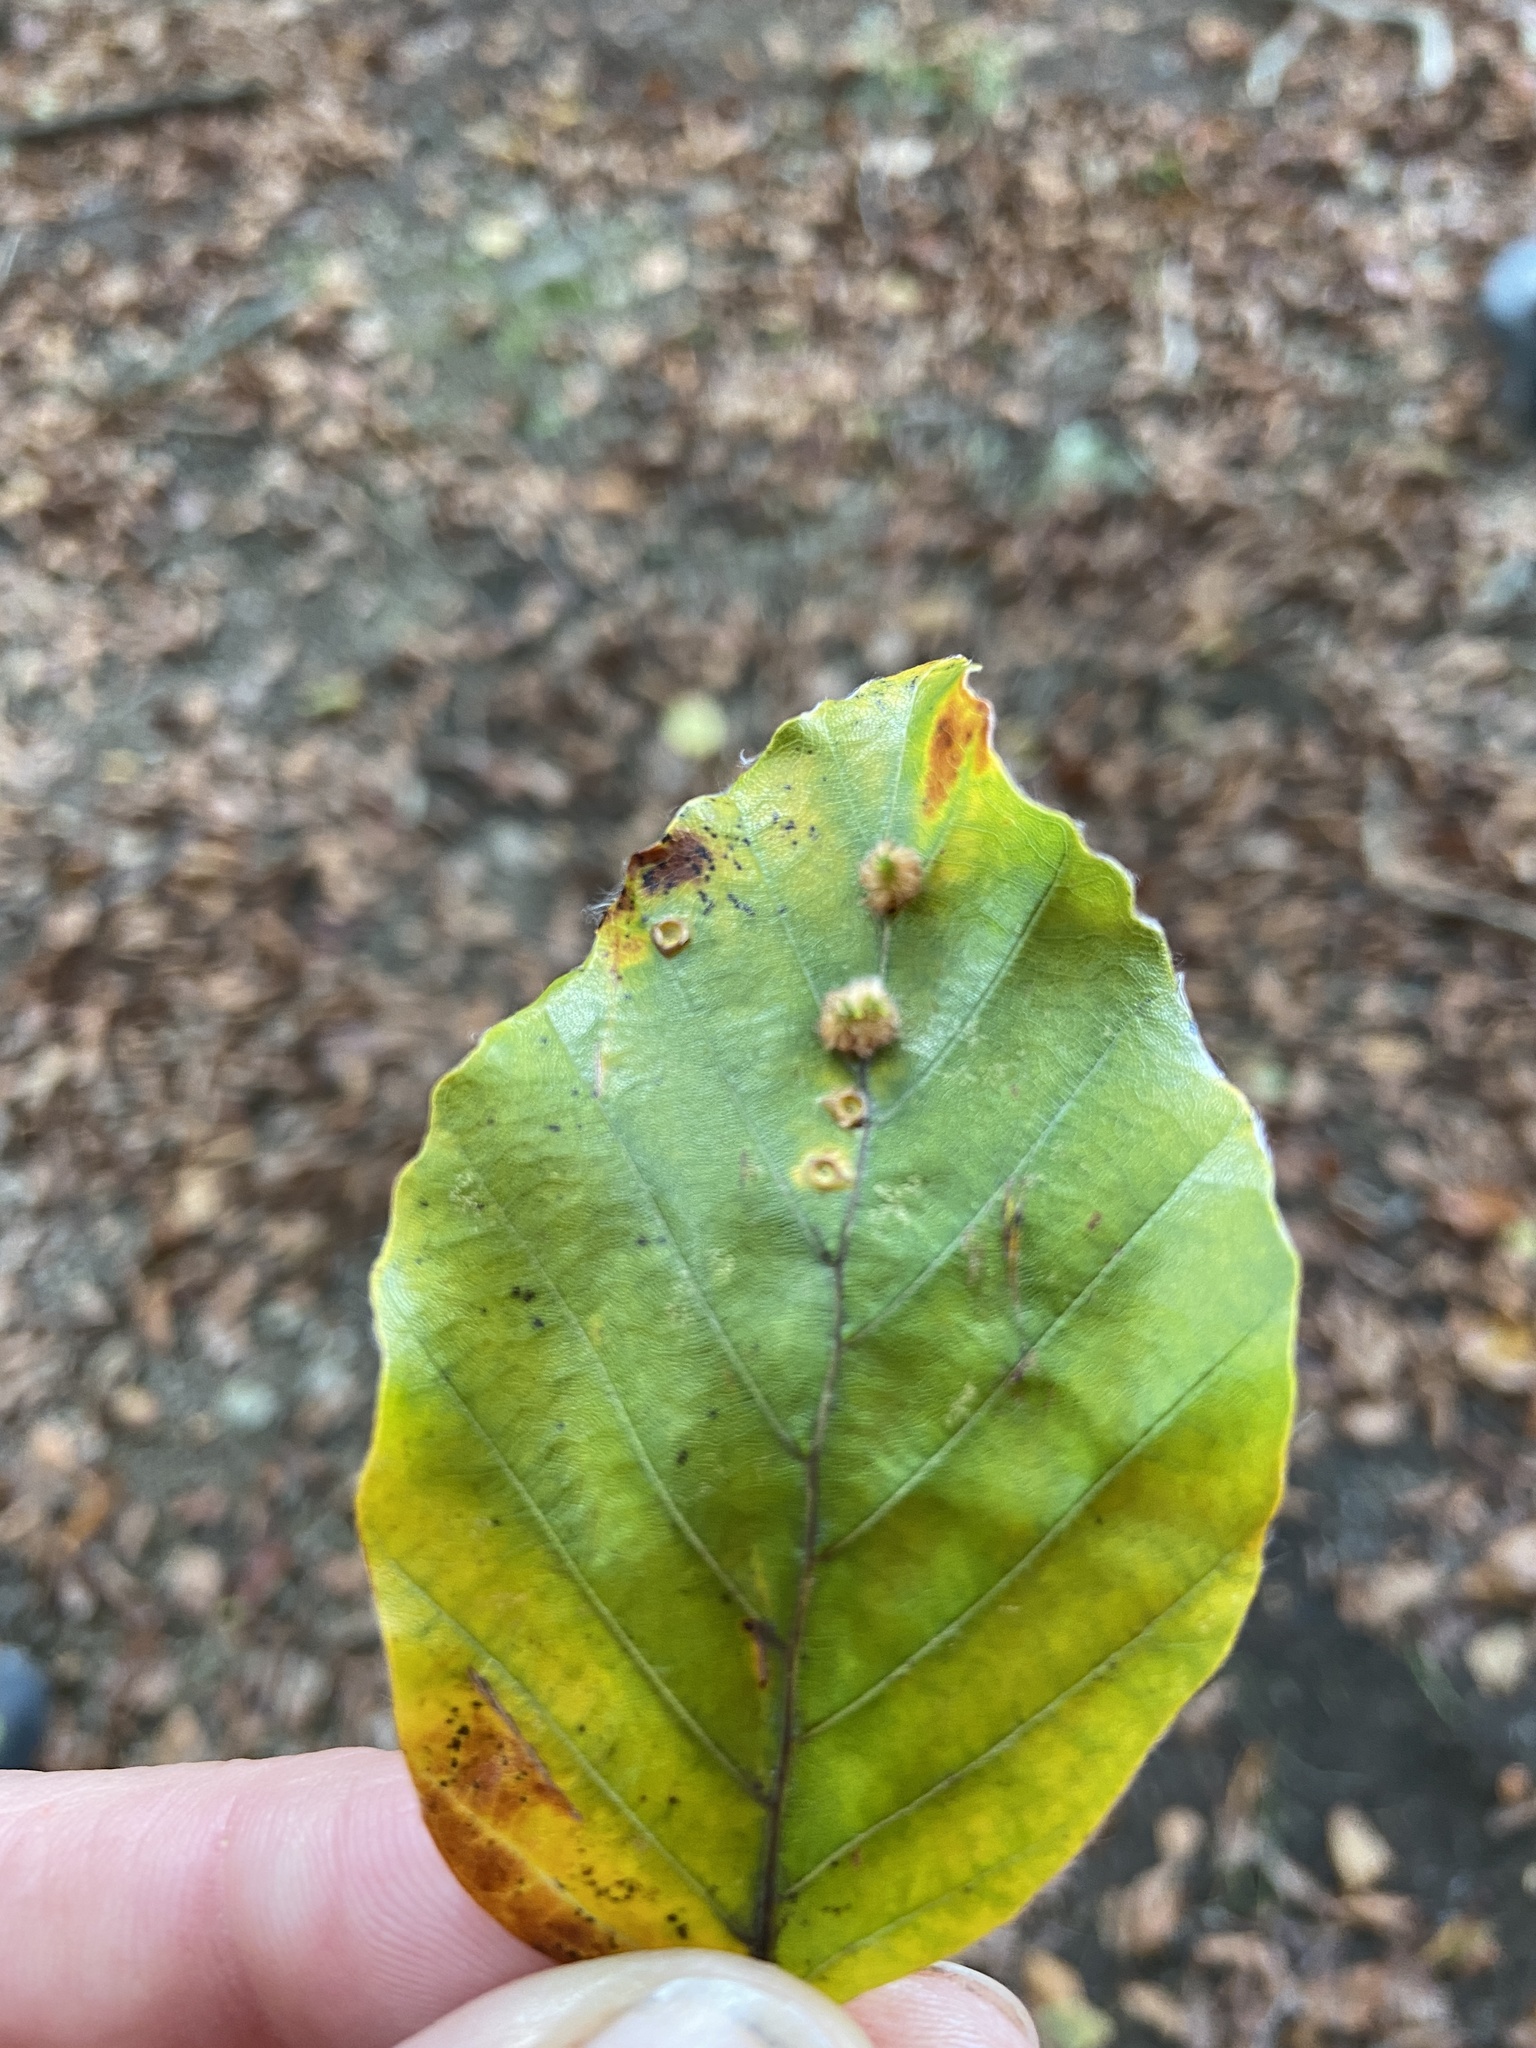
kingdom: Animalia
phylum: Arthropoda
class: Insecta
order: Diptera
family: Cecidomyiidae
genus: Hartigiola
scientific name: Hartigiola annulipes
